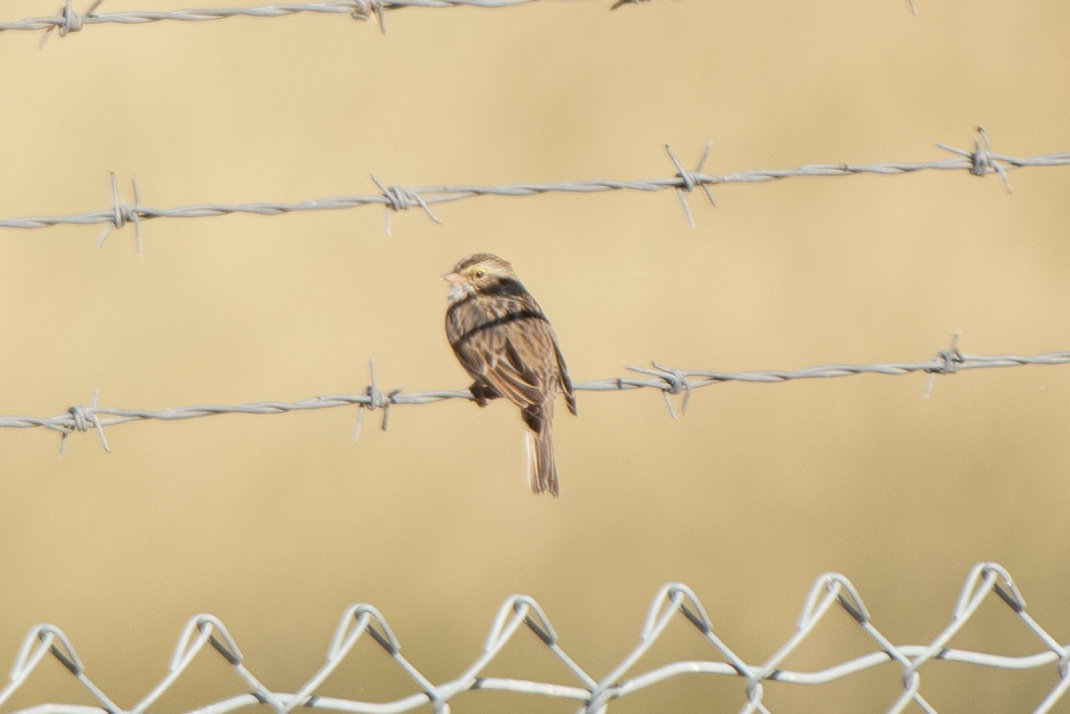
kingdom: Animalia
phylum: Chordata
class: Aves
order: Passeriformes
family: Passerellidae
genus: Passerculus
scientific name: Passerculus sandwichensis
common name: Savannah sparrow
